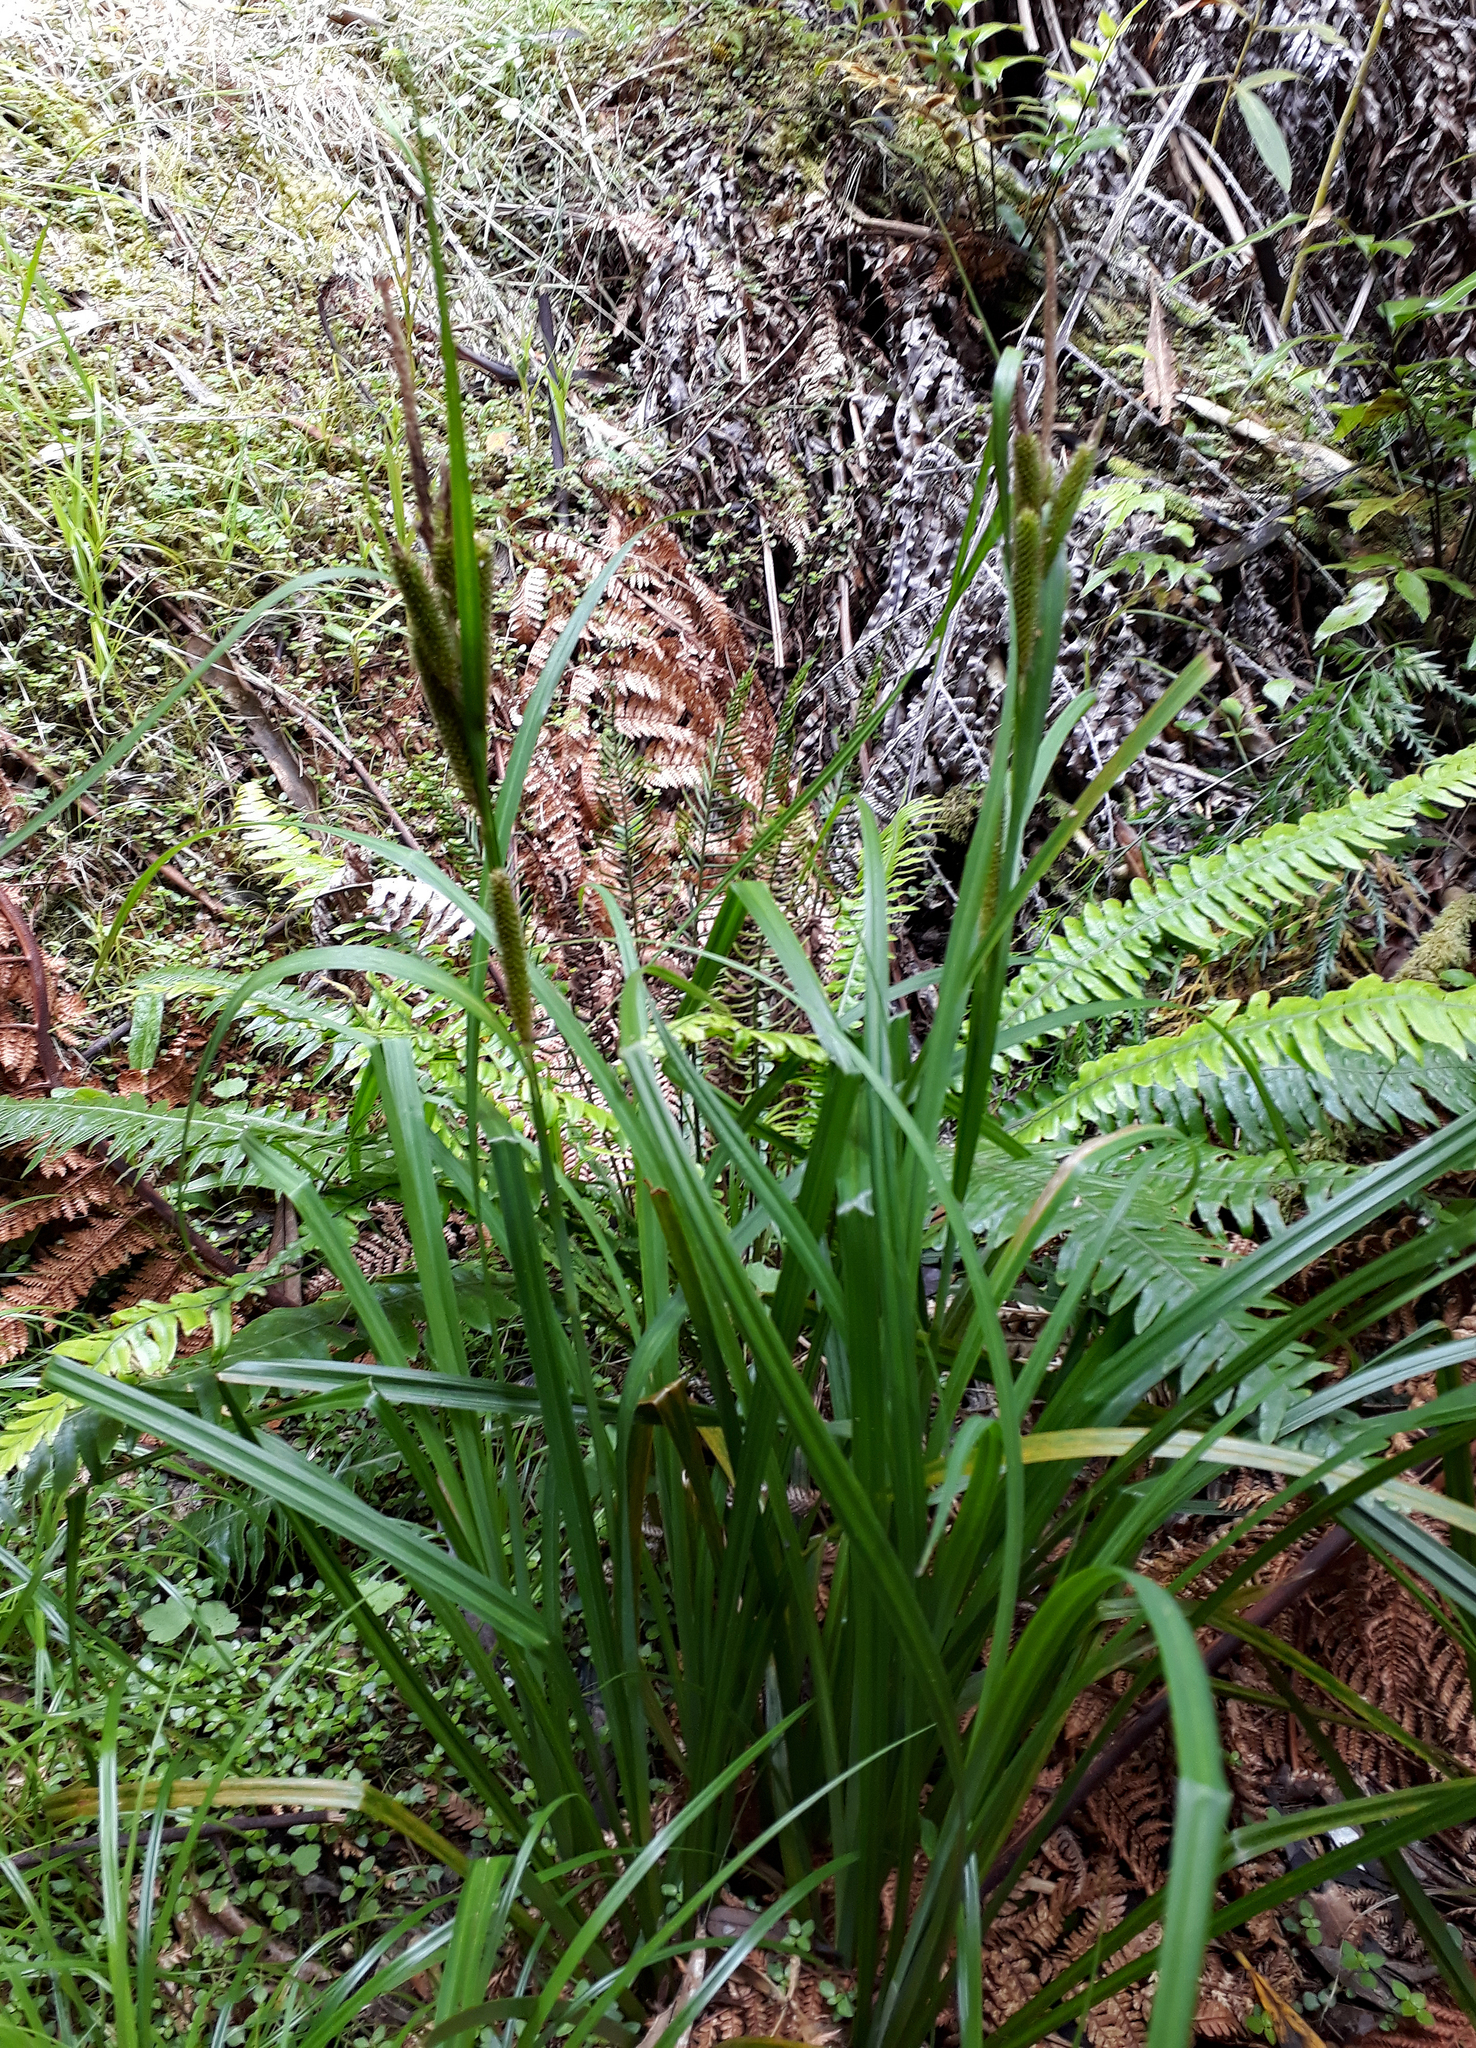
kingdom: Plantae
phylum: Tracheophyta
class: Liliopsida
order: Poales
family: Cyperaceae
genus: Carex
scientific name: Carex ventosa
